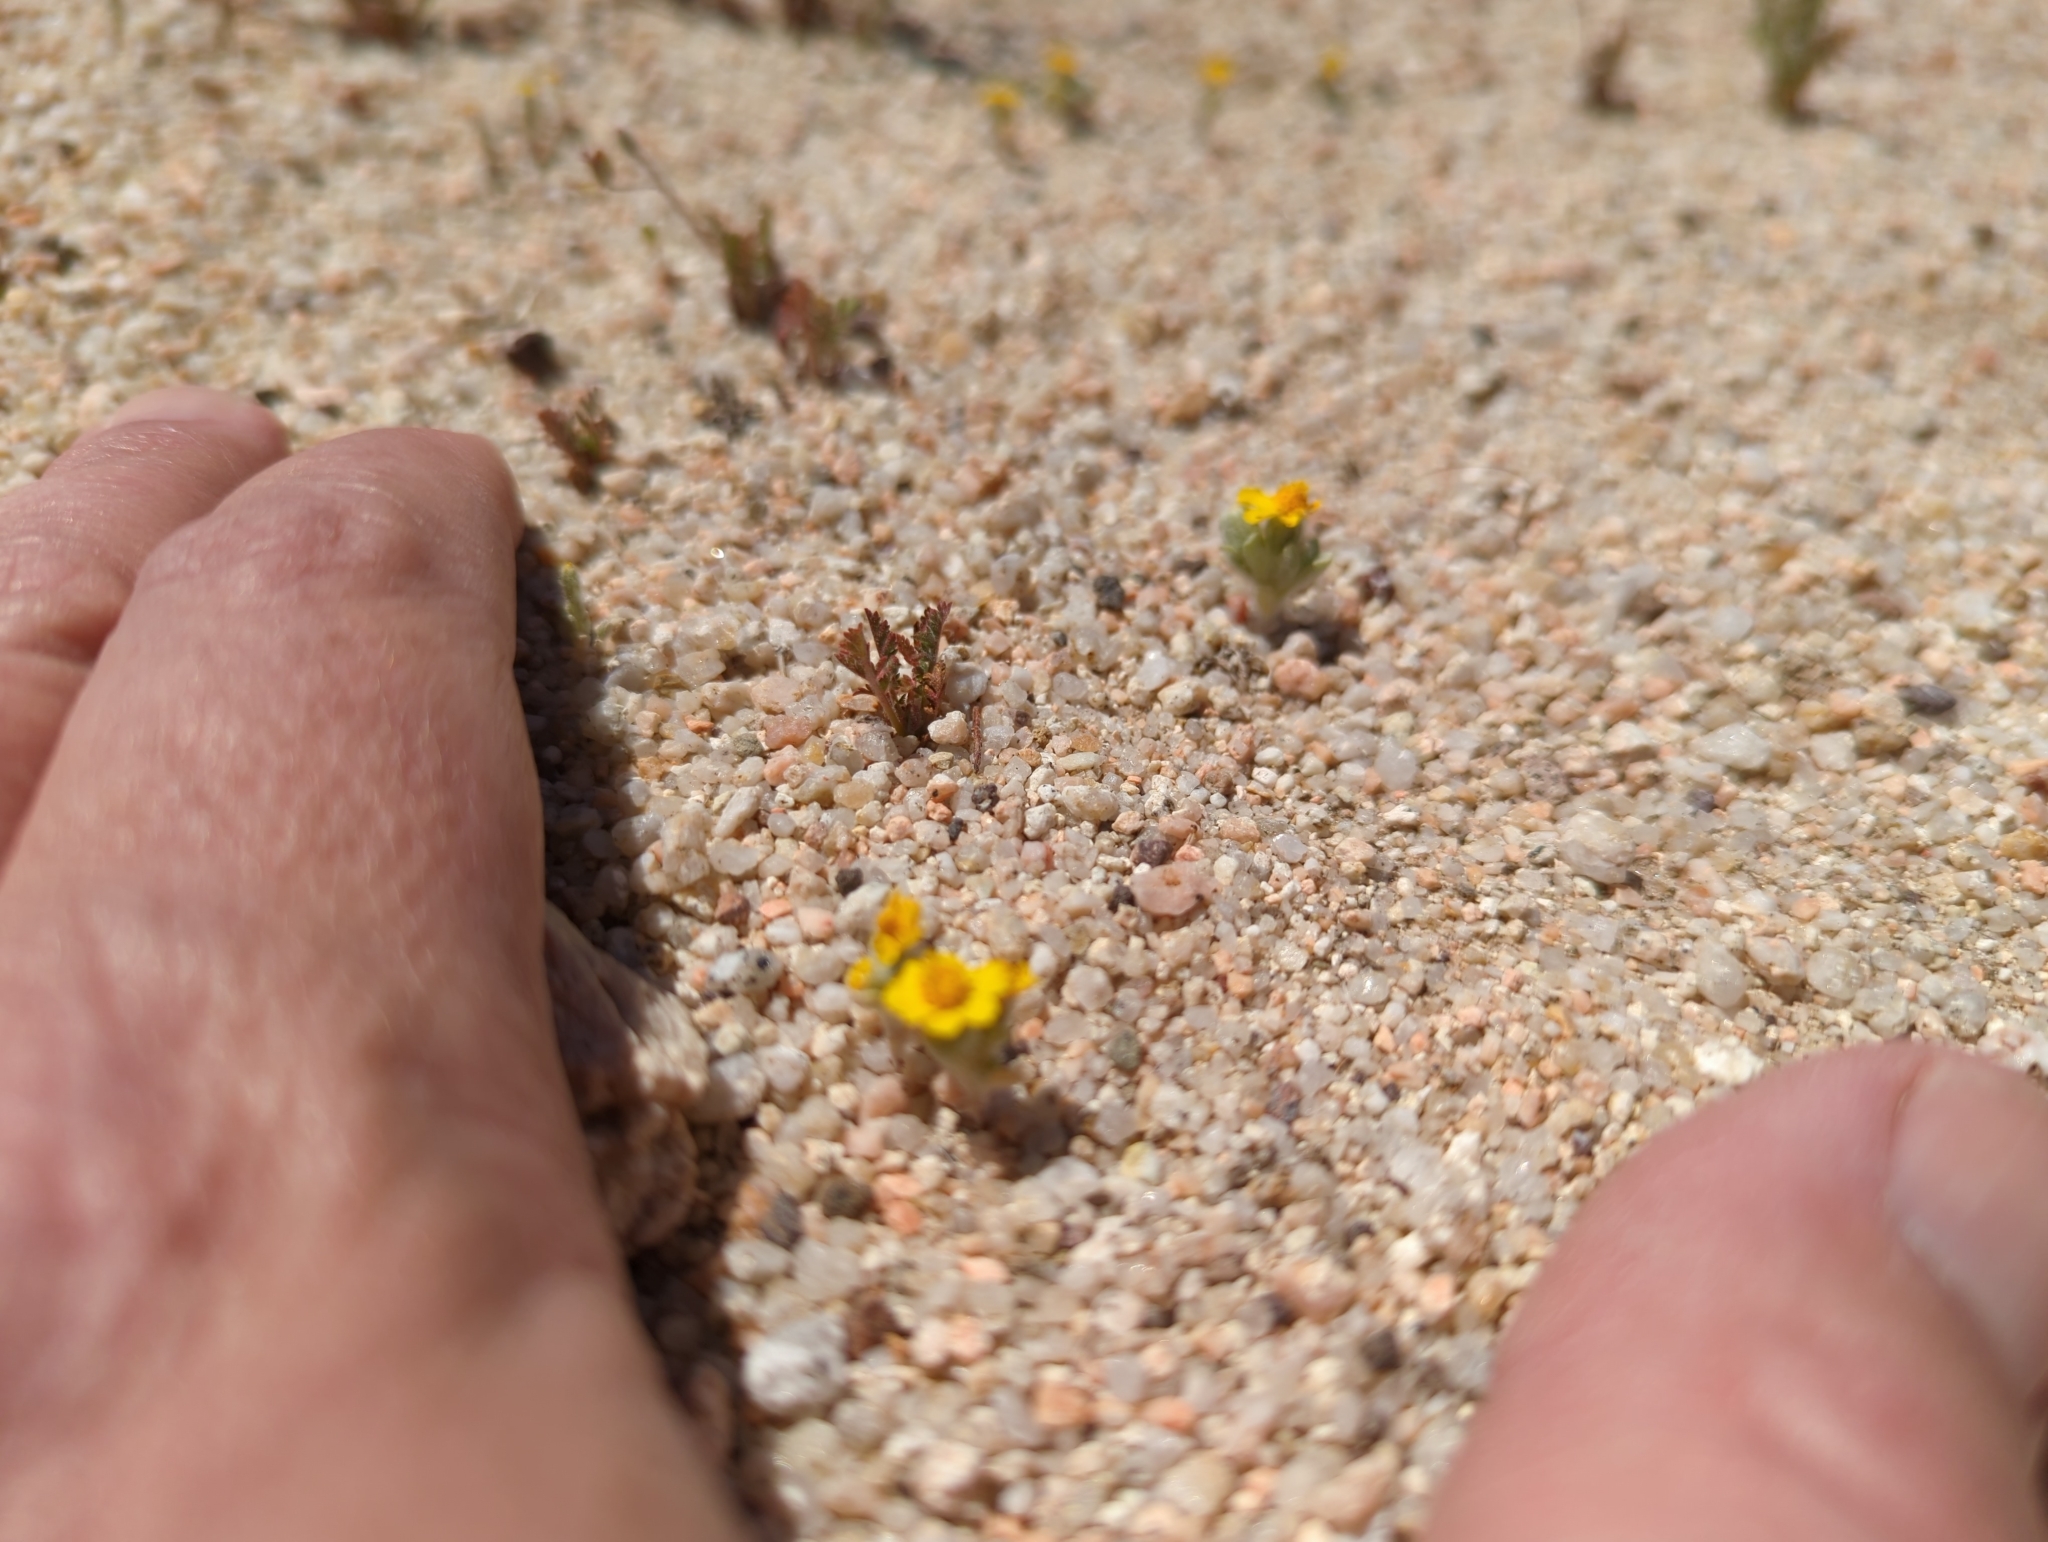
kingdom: Plantae
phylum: Tracheophyta
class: Magnoliopsida
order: Asterales
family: Asteraceae
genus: Eriophyllum
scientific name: Eriophyllum wallacei
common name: Wallace's woolly daisy
